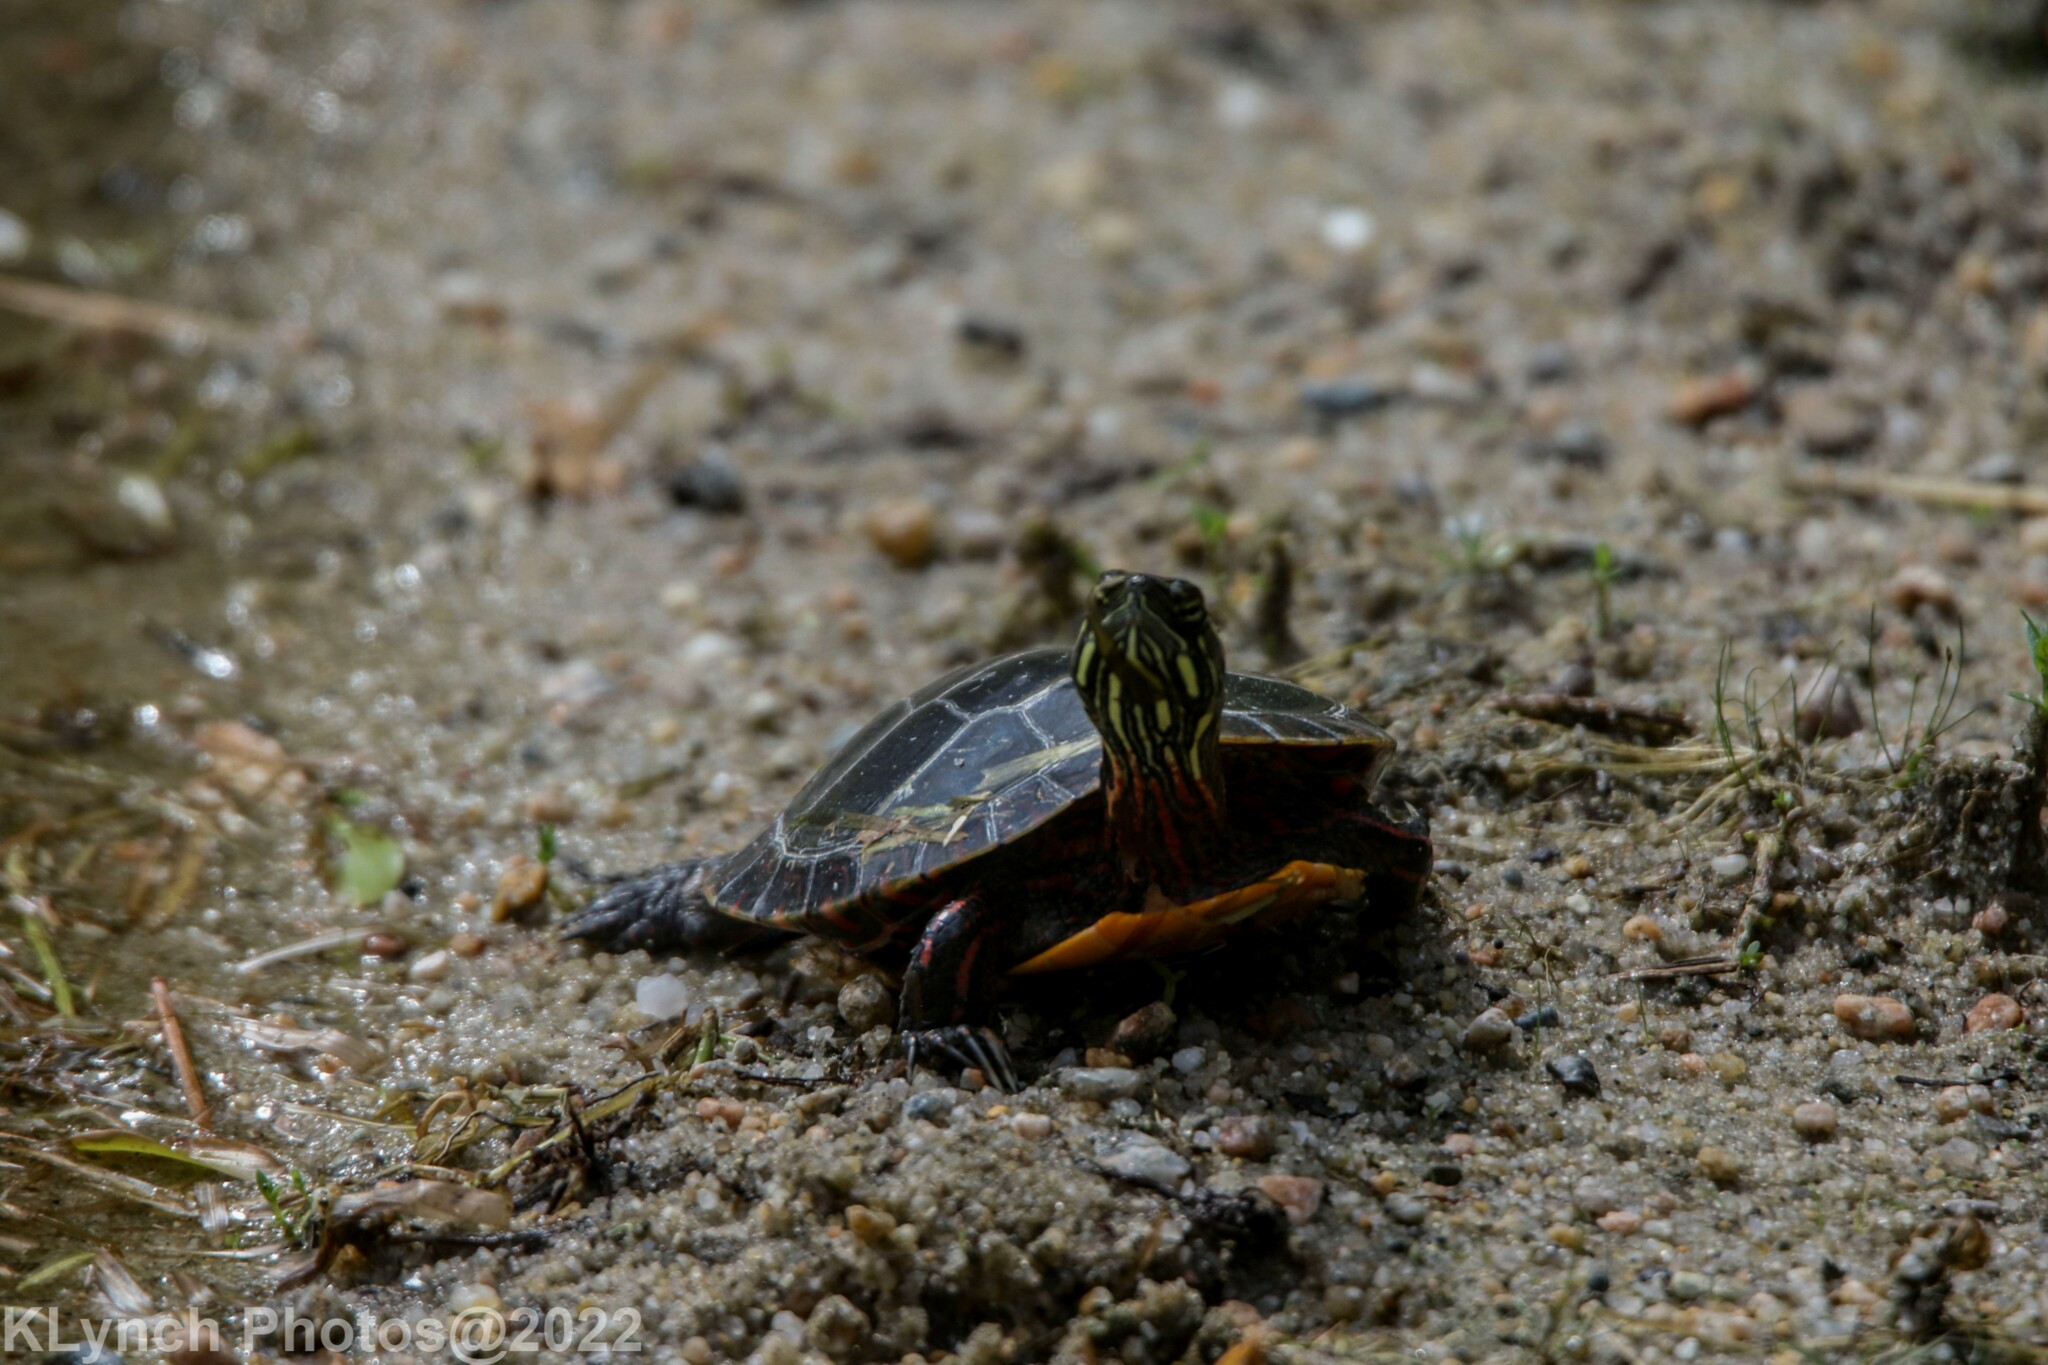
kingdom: Animalia
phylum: Chordata
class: Testudines
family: Emydidae
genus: Chrysemys
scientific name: Chrysemys picta
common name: Painted turtle
